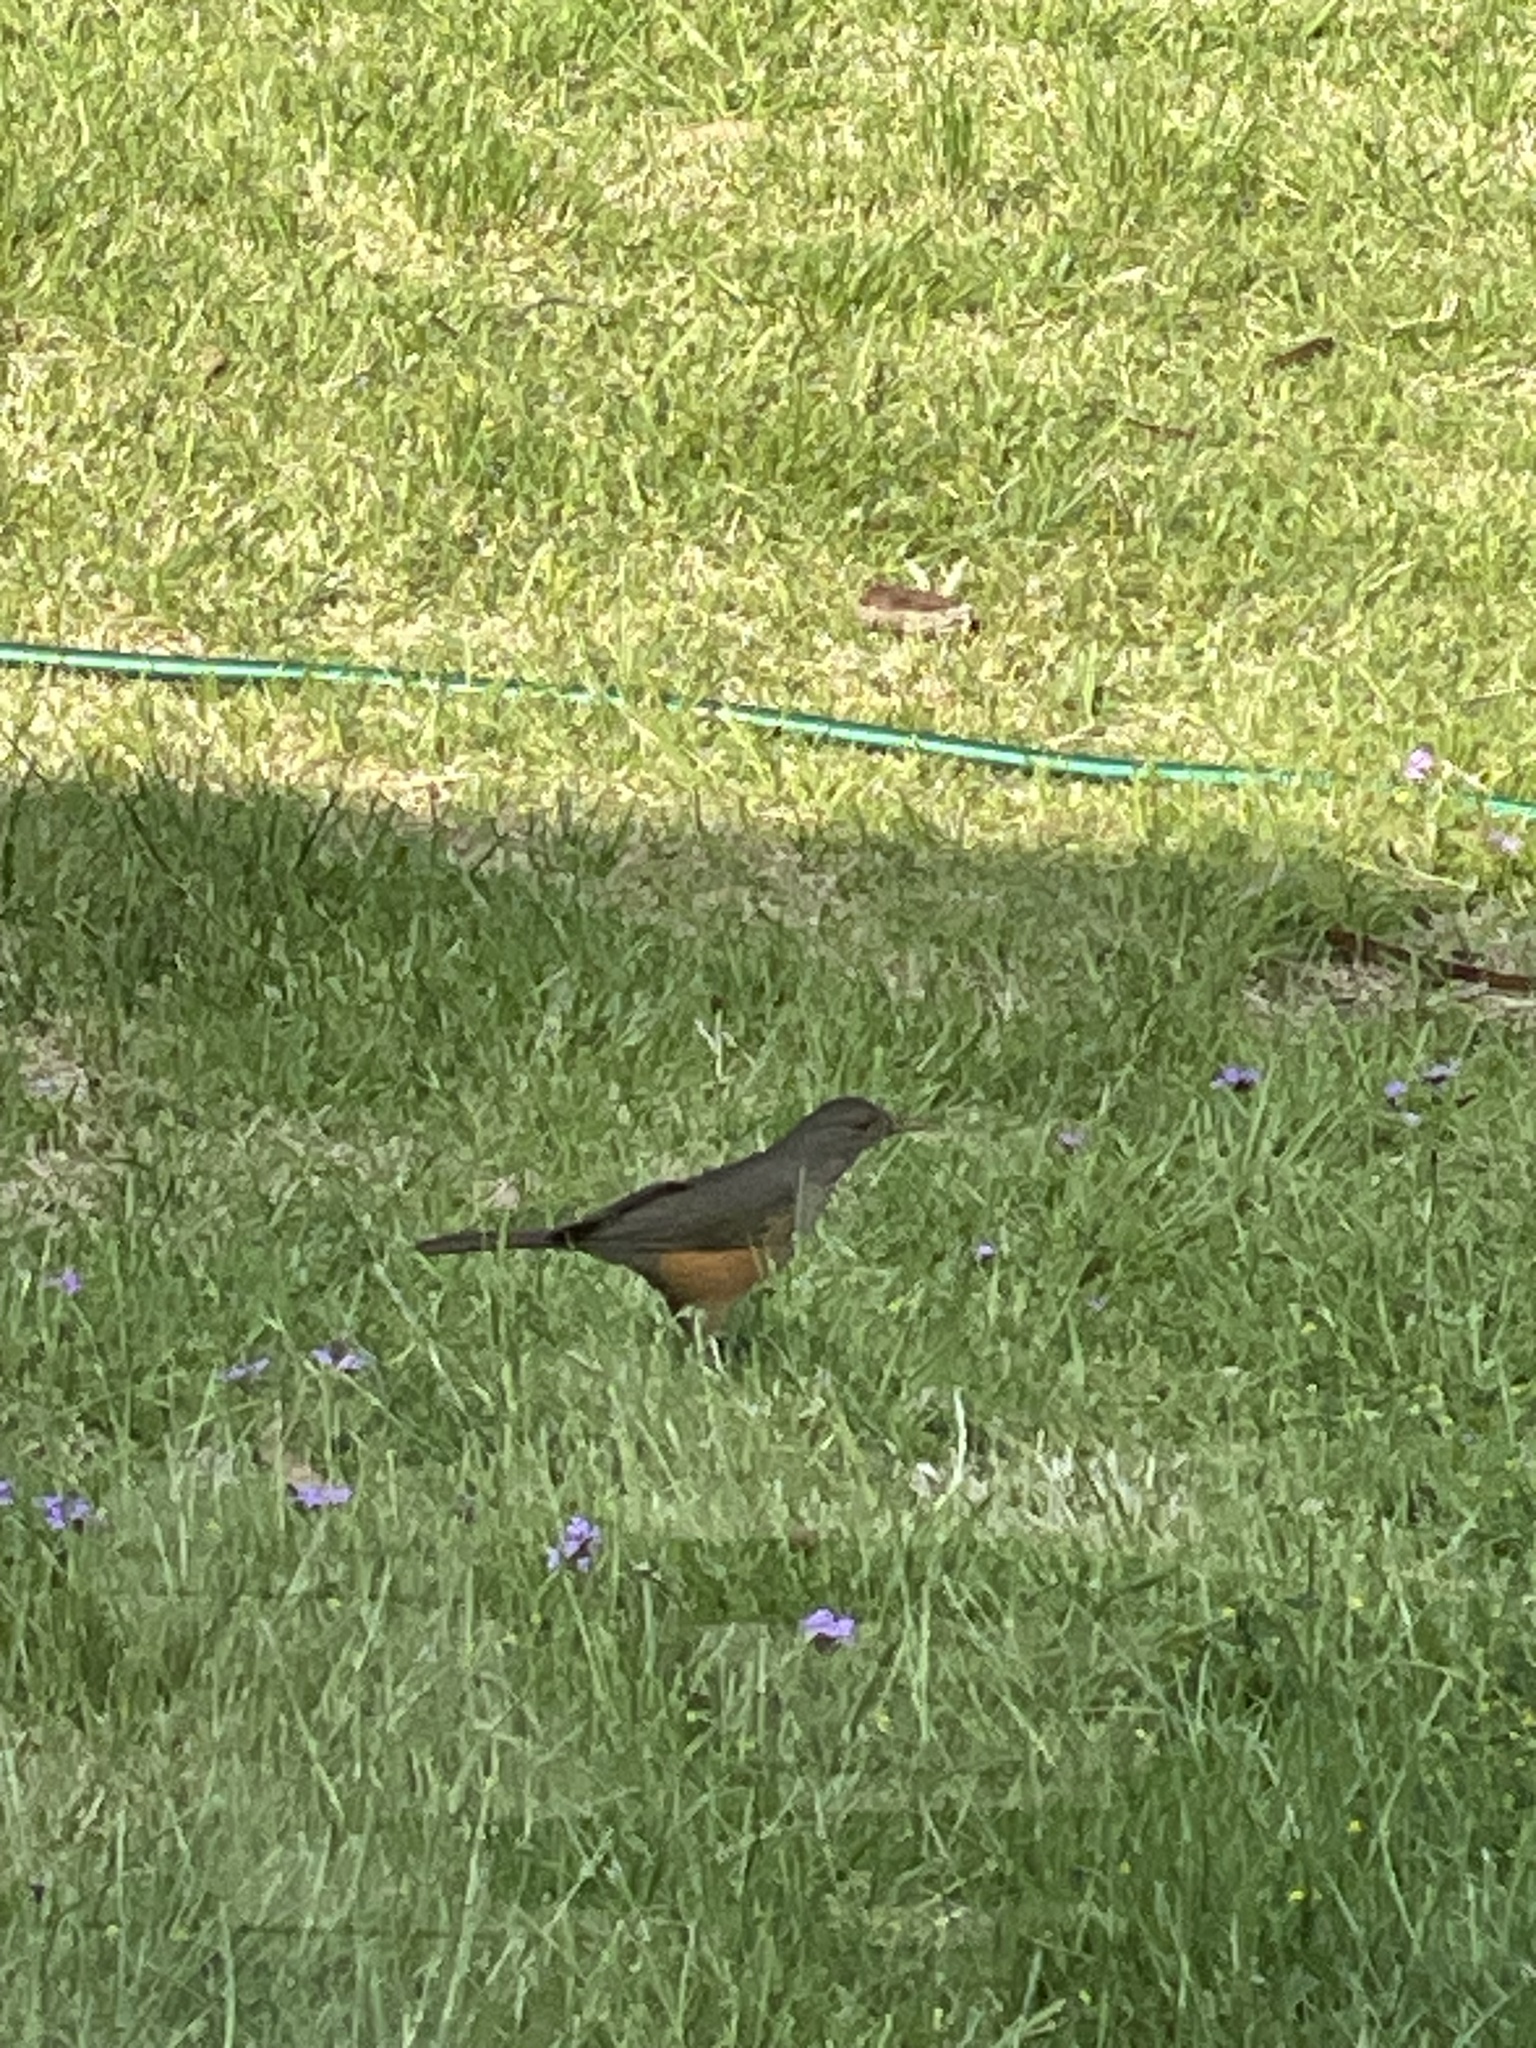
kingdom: Animalia
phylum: Chordata
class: Aves
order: Passeriformes
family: Turdidae
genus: Turdus
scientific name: Turdus rufiventris
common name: Rufous-bellied thrush
